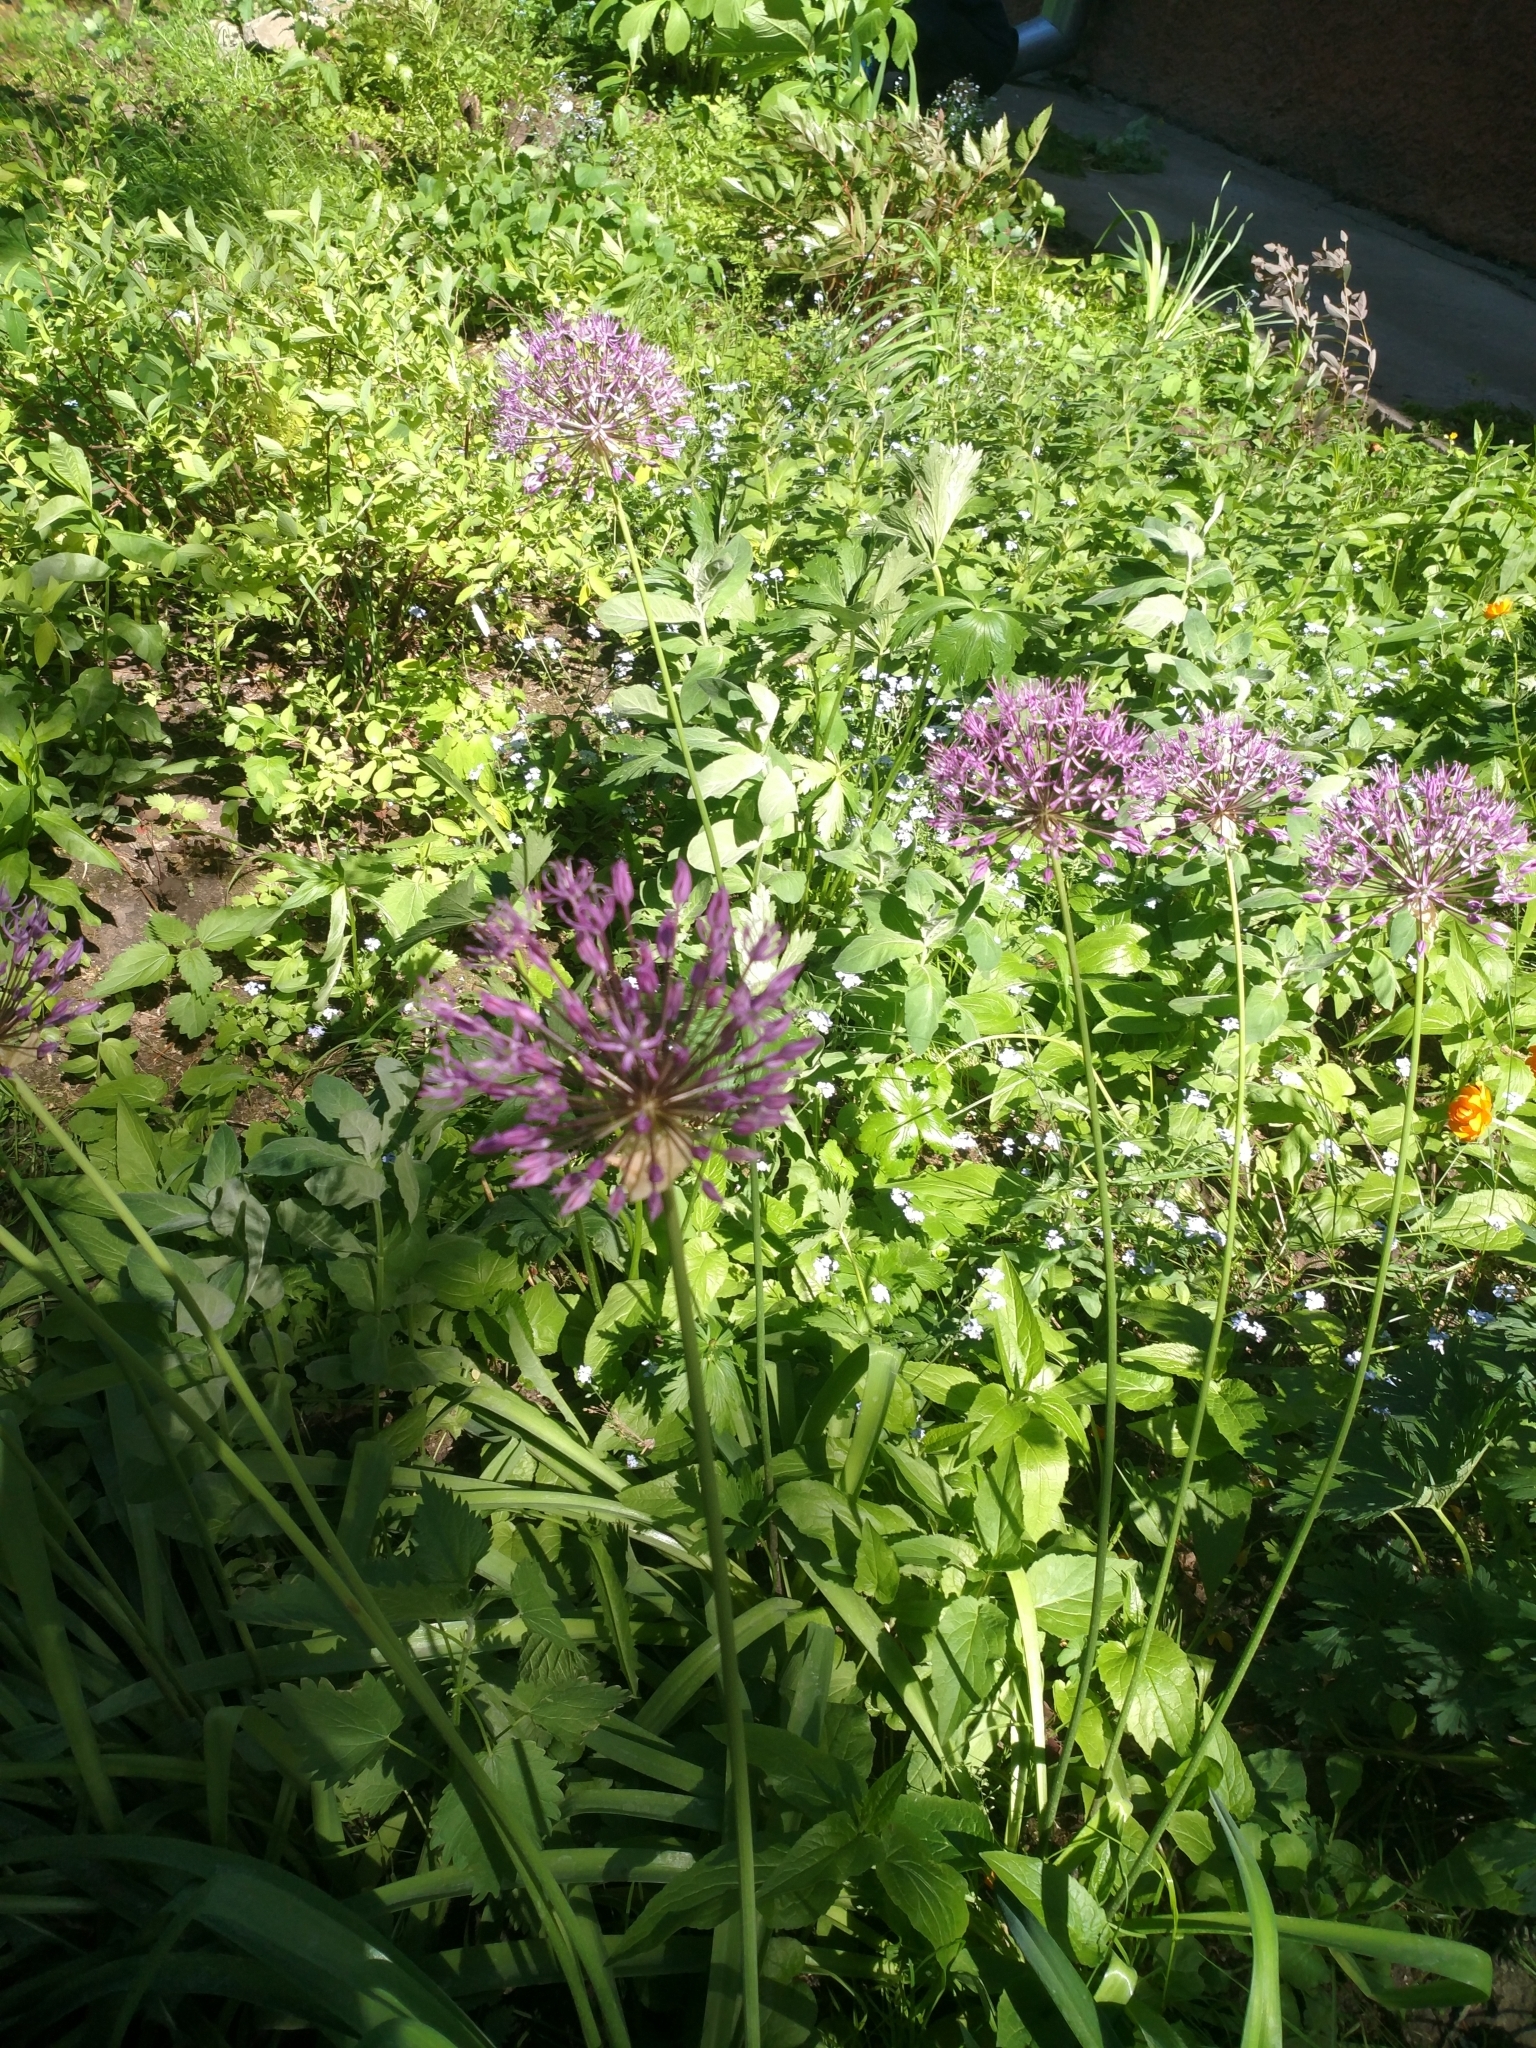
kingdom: Plantae
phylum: Tracheophyta
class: Liliopsida
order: Asparagales
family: Amaryllidaceae
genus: Allium
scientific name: Allium rosenorum
